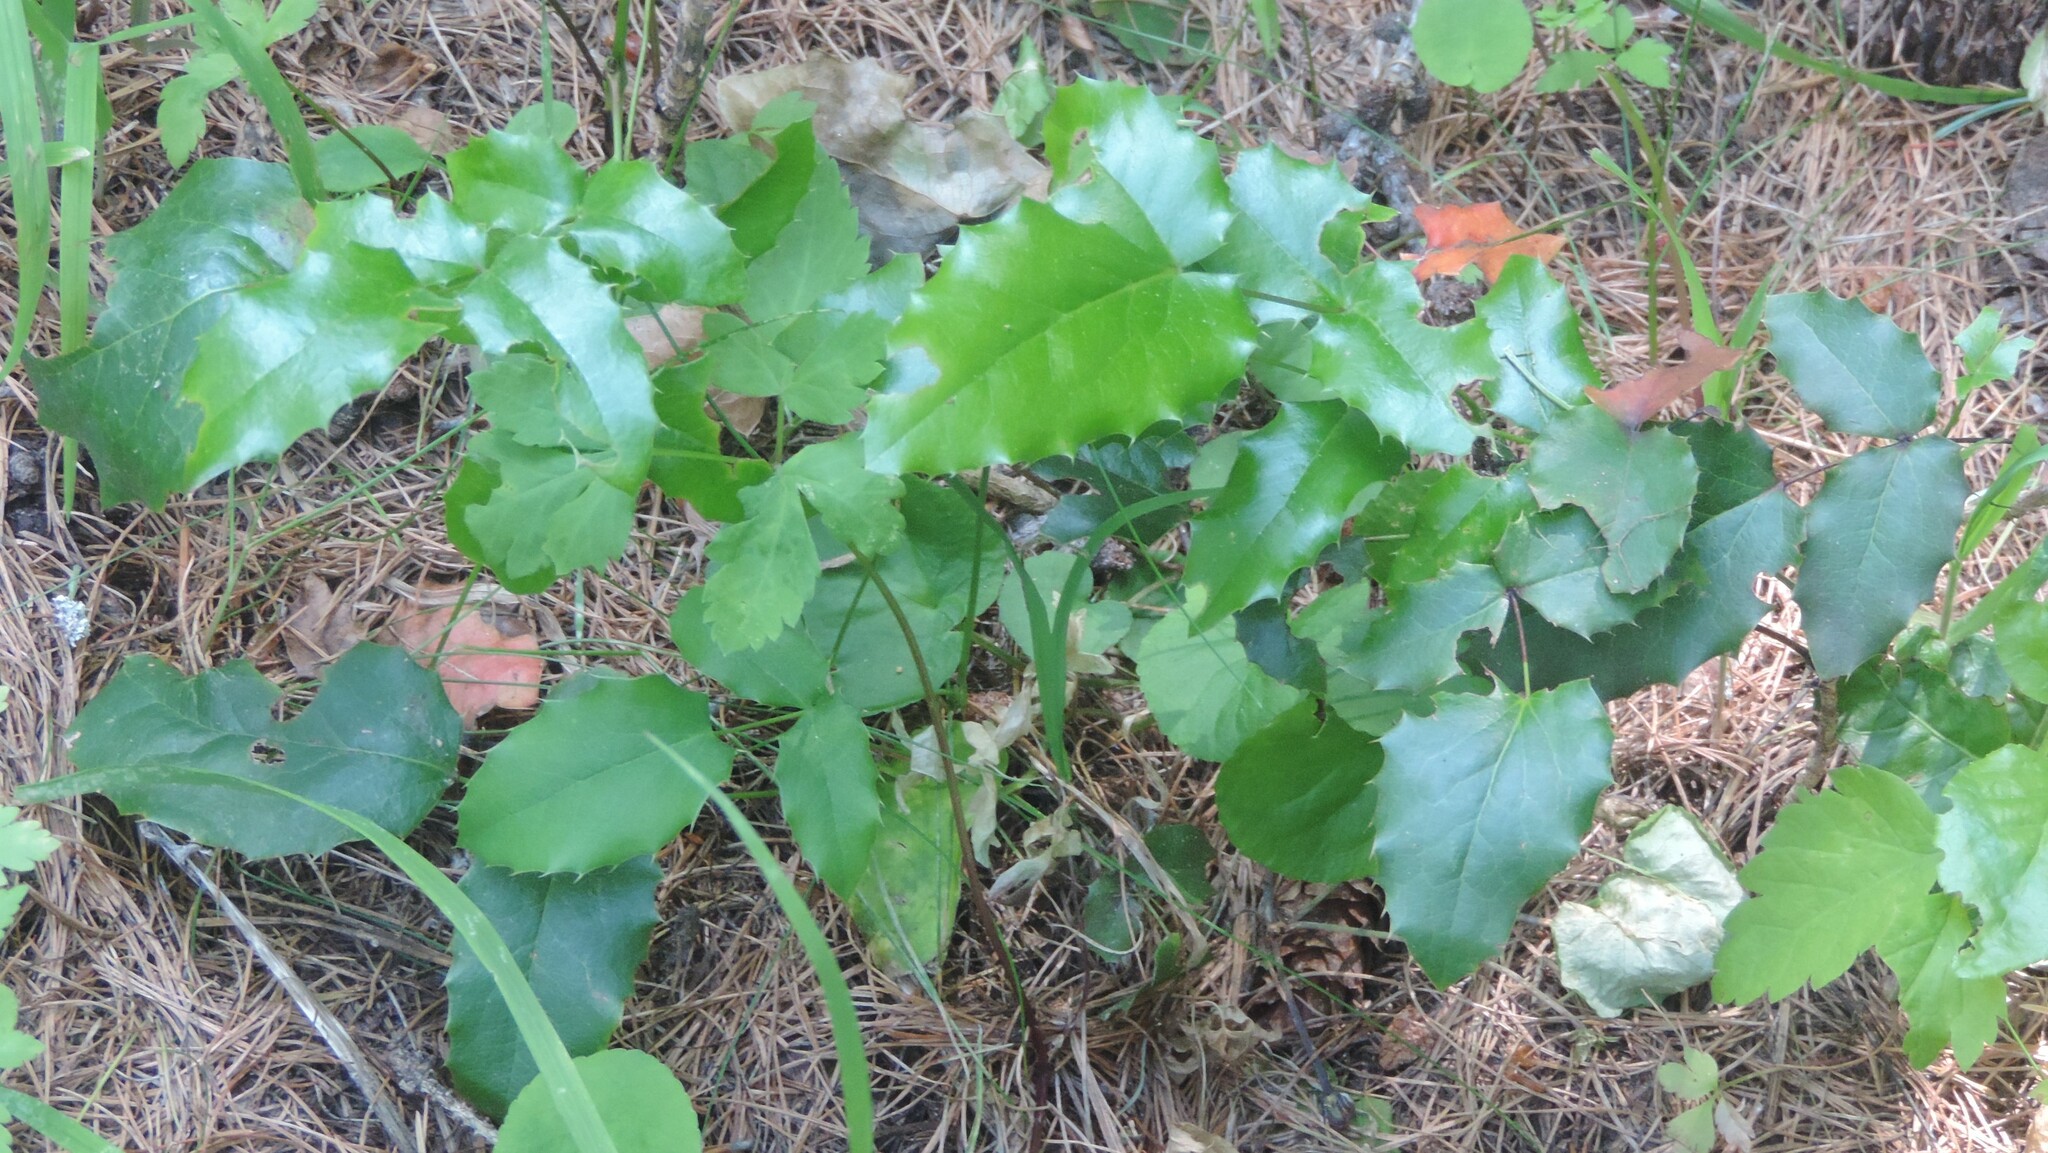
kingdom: Plantae
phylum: Tracheophyta
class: Magnoliopsida
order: Ranunculales
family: Berberidaceae
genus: Mahonia
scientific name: Mahonia aquifolium
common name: Oregon-grape
